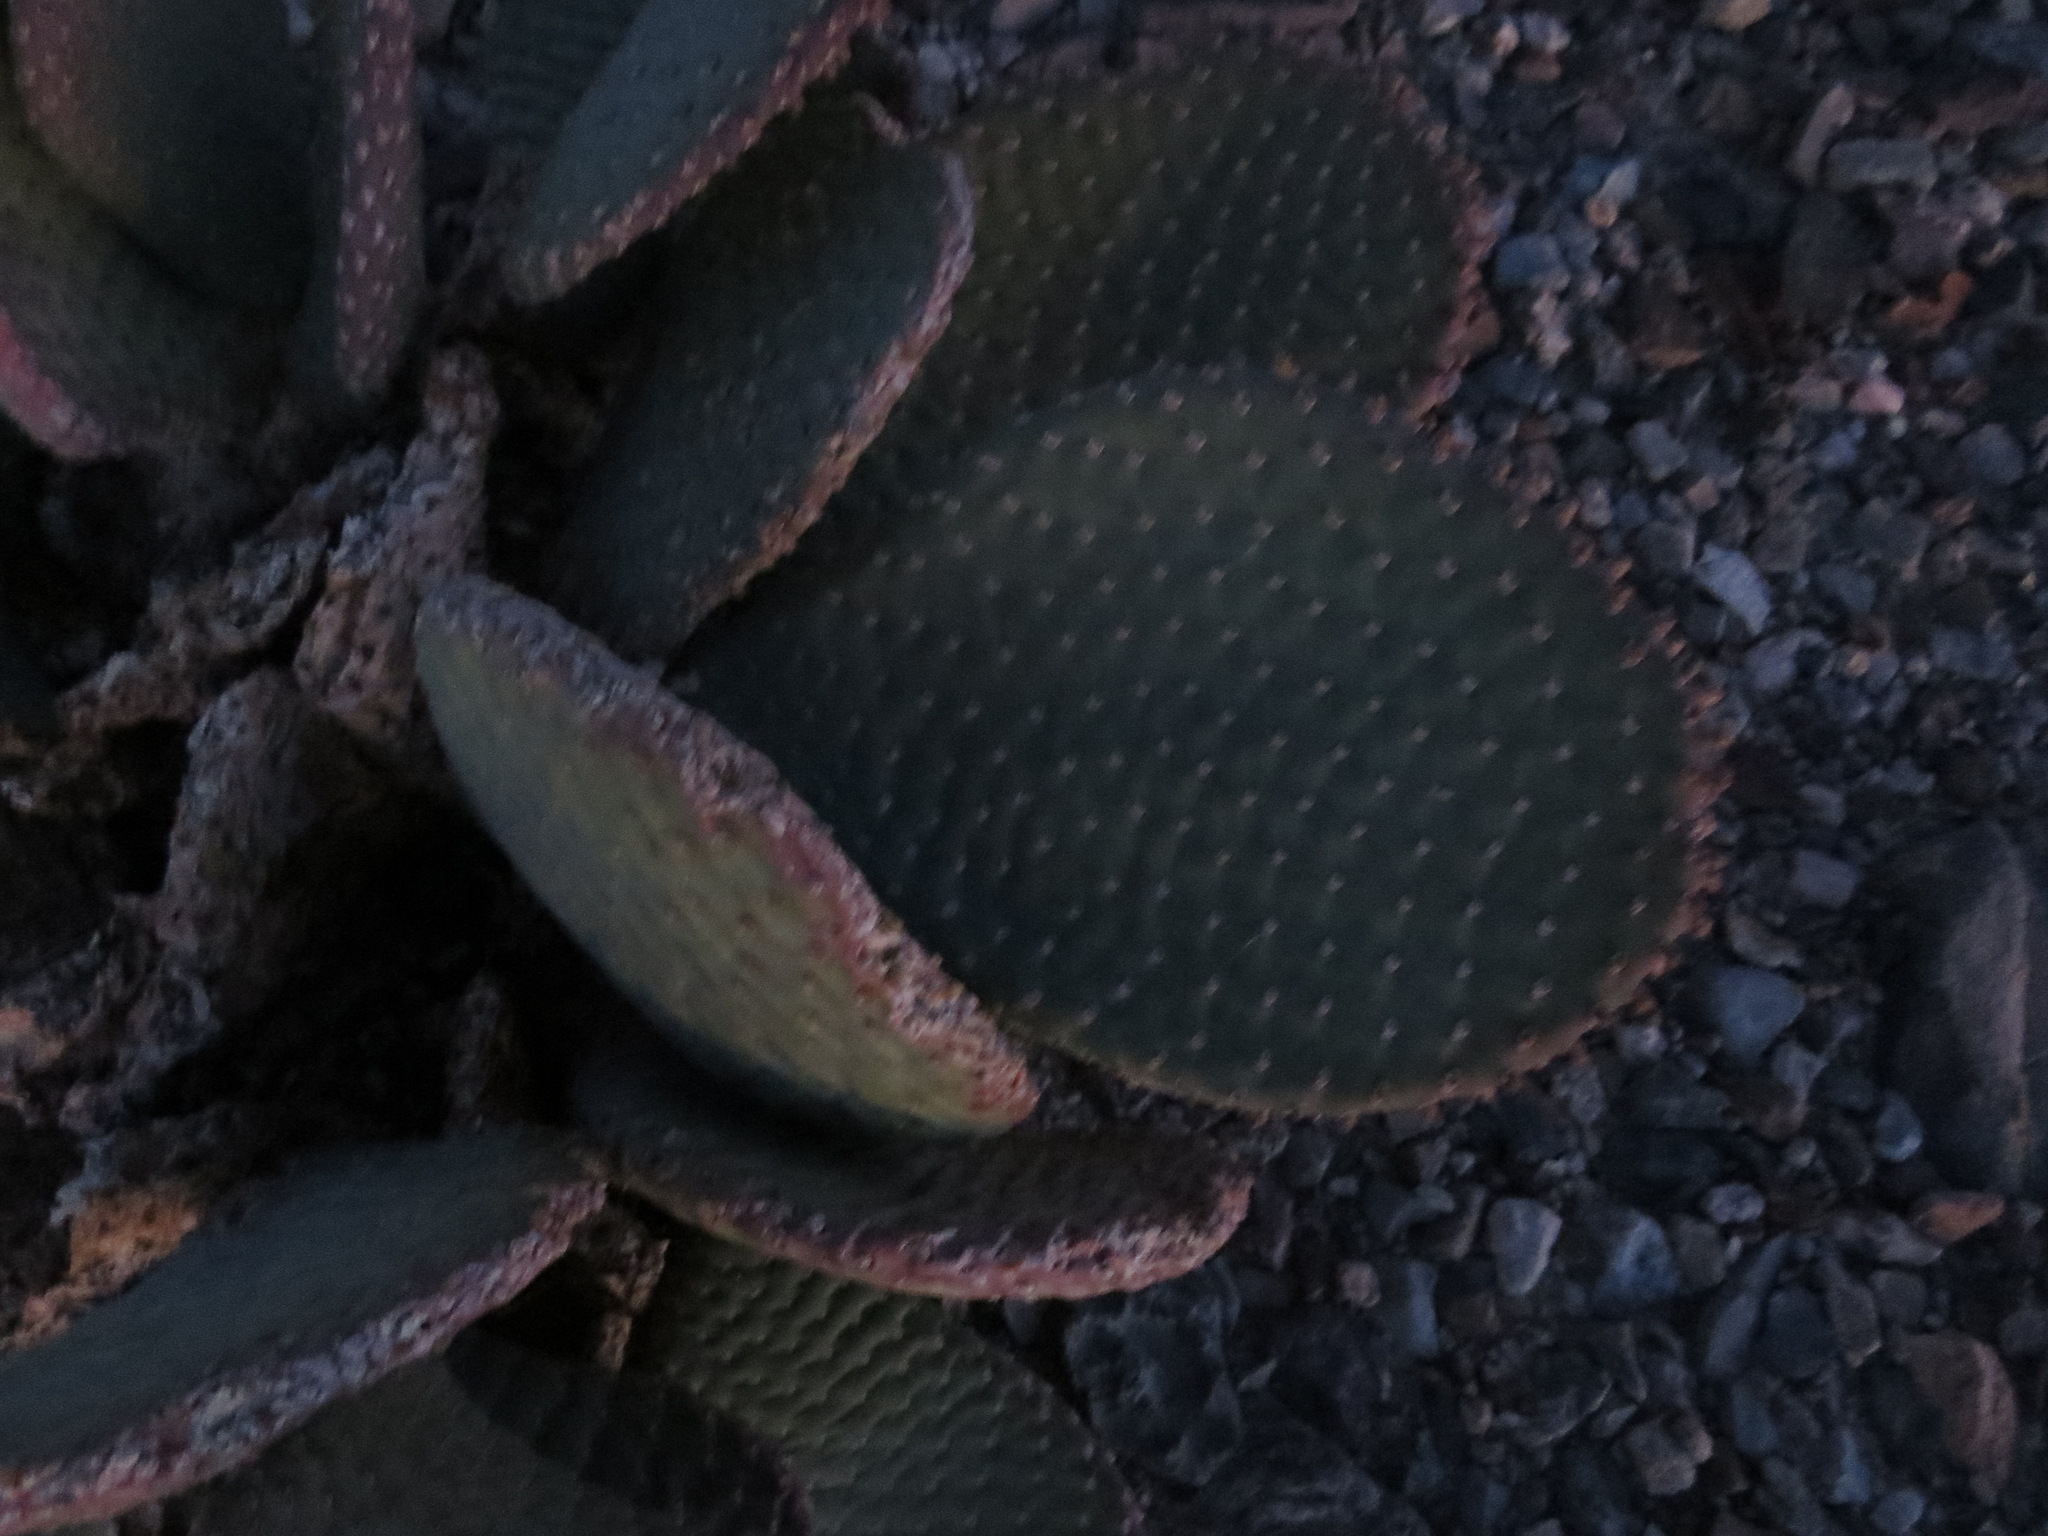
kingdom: Plantae
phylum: Tracheophyta
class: Magnoliopsida
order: Caryophyllales
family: Cactaceae
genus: Opuntia
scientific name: Opuntia basilaris
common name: Beavertail prickly-pear
